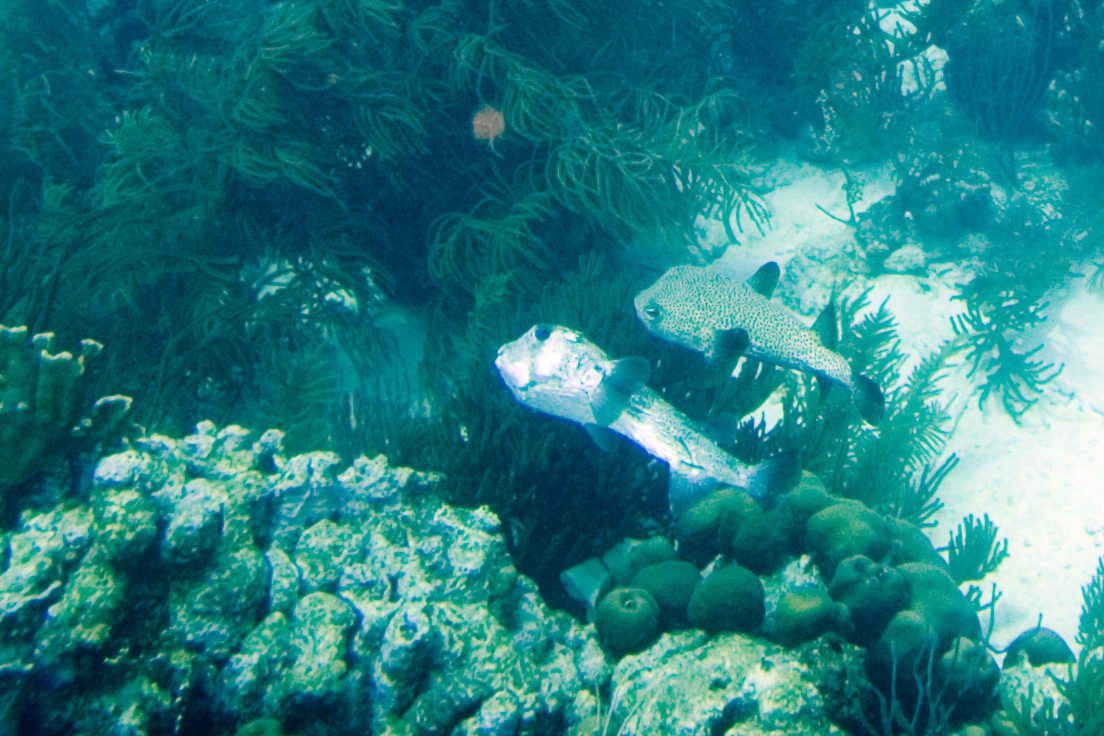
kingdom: Animalia
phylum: Chordata
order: Tetraodontiformes
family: Diodontidae
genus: Diodon
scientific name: Diodon hystrix
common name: Giant porcupinefish
